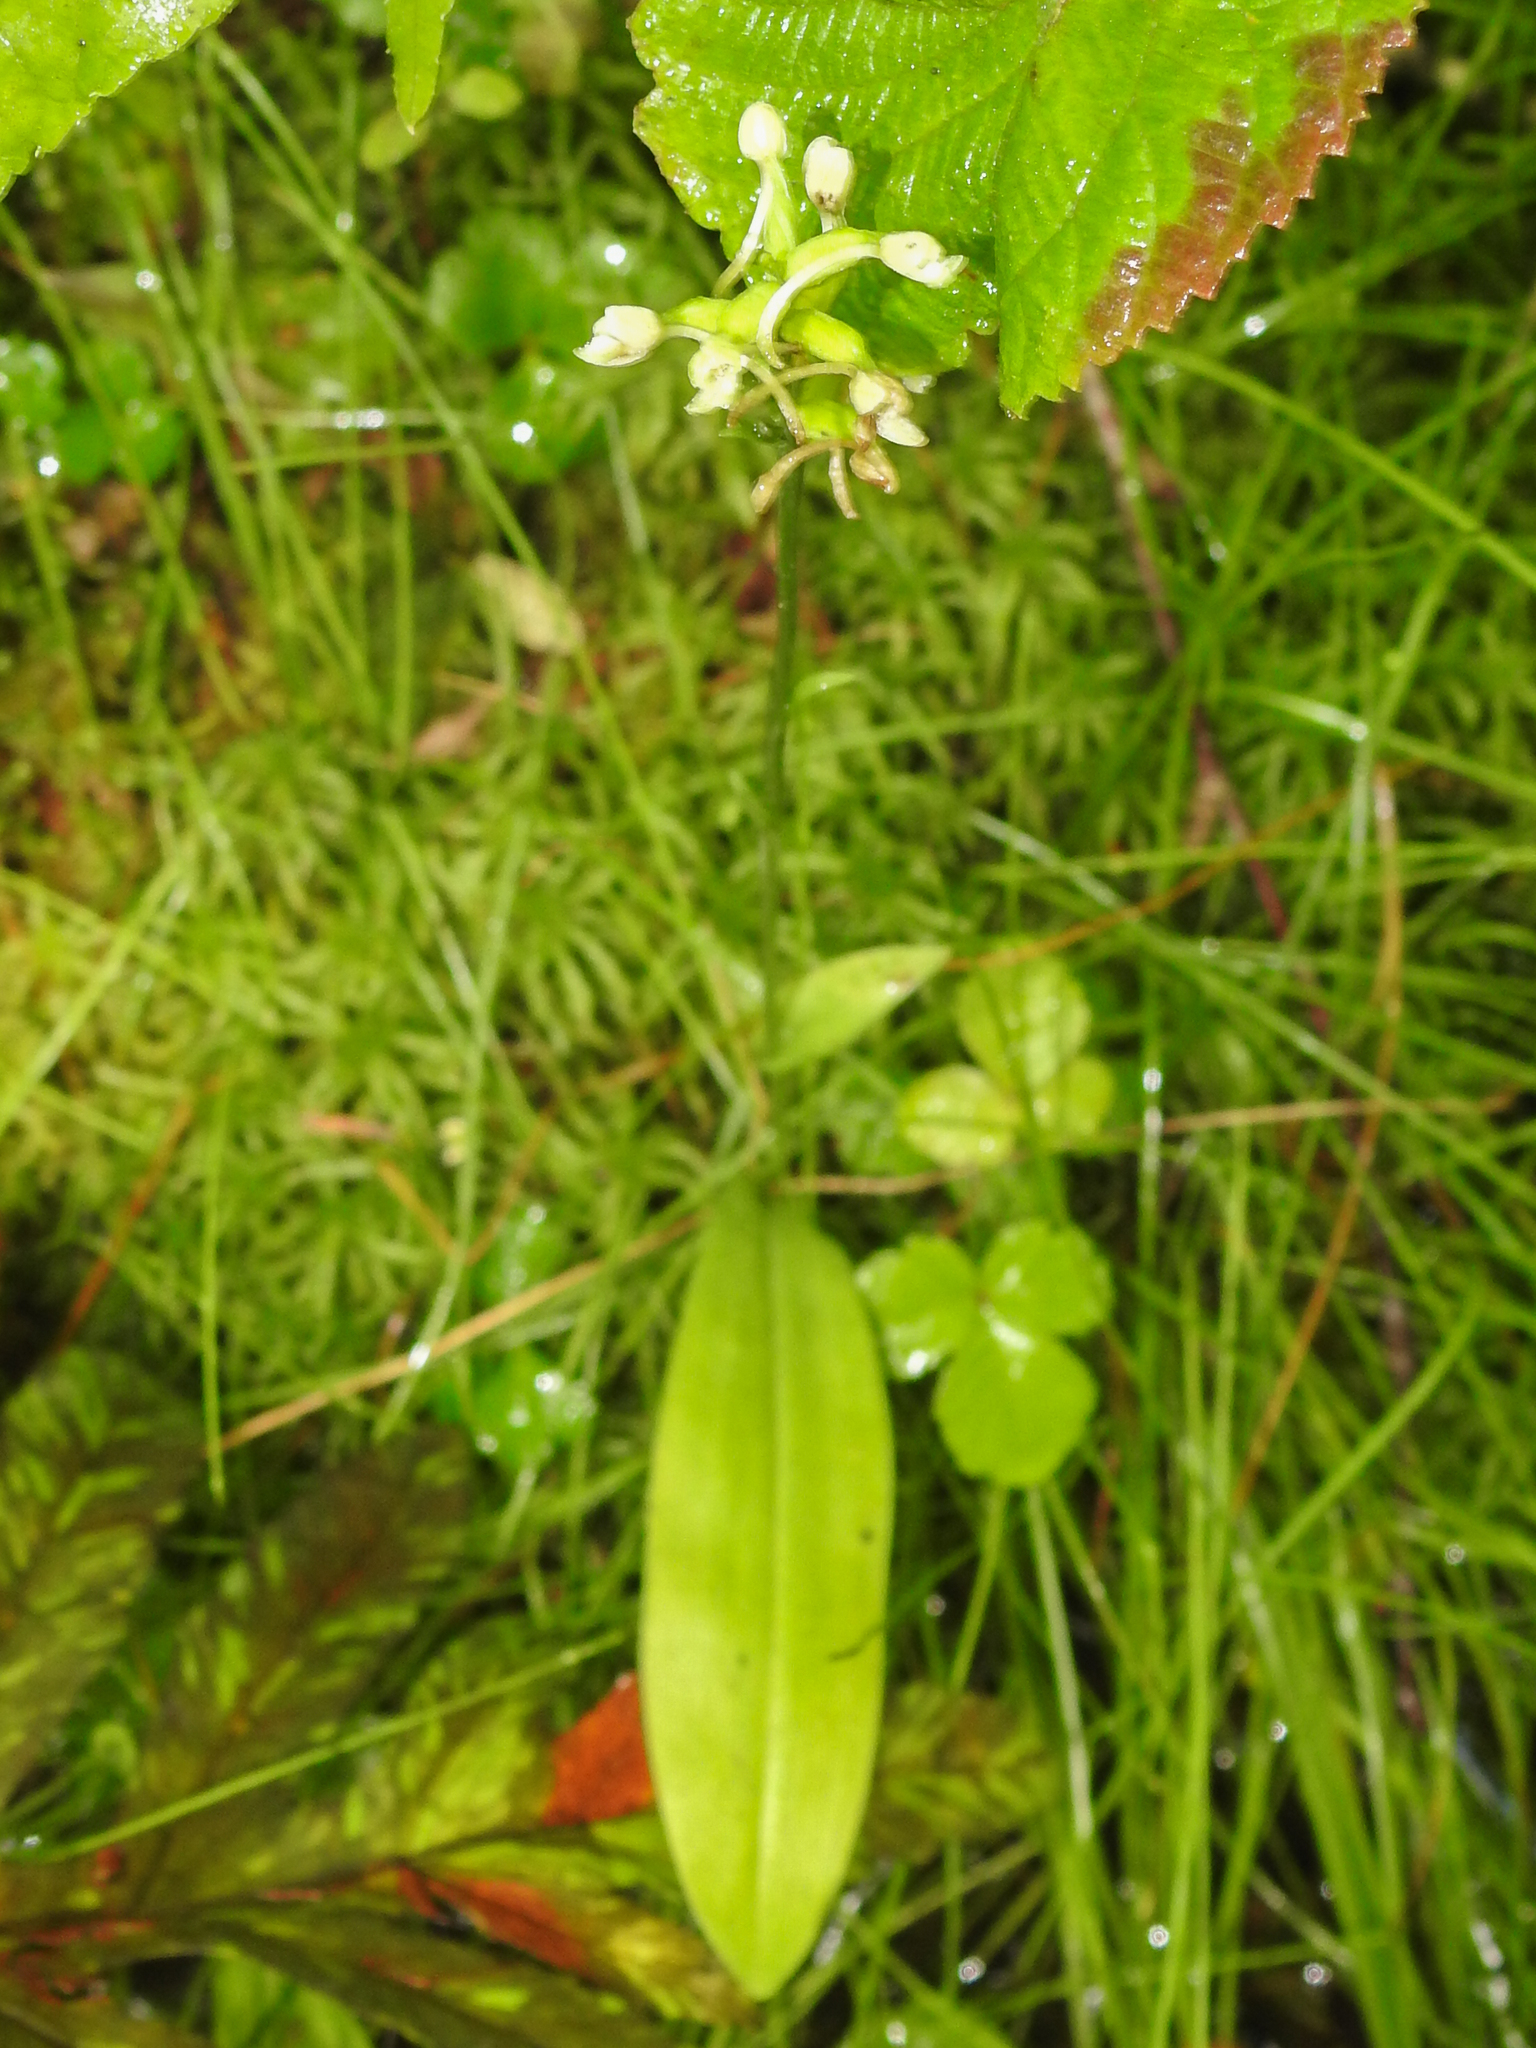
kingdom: Plantae
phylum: Tracheophyta
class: Liliopsida
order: Asparagales
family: Orchidaceae
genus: Platanthera
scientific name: Platanthera clavellata
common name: Club-spur orchid
